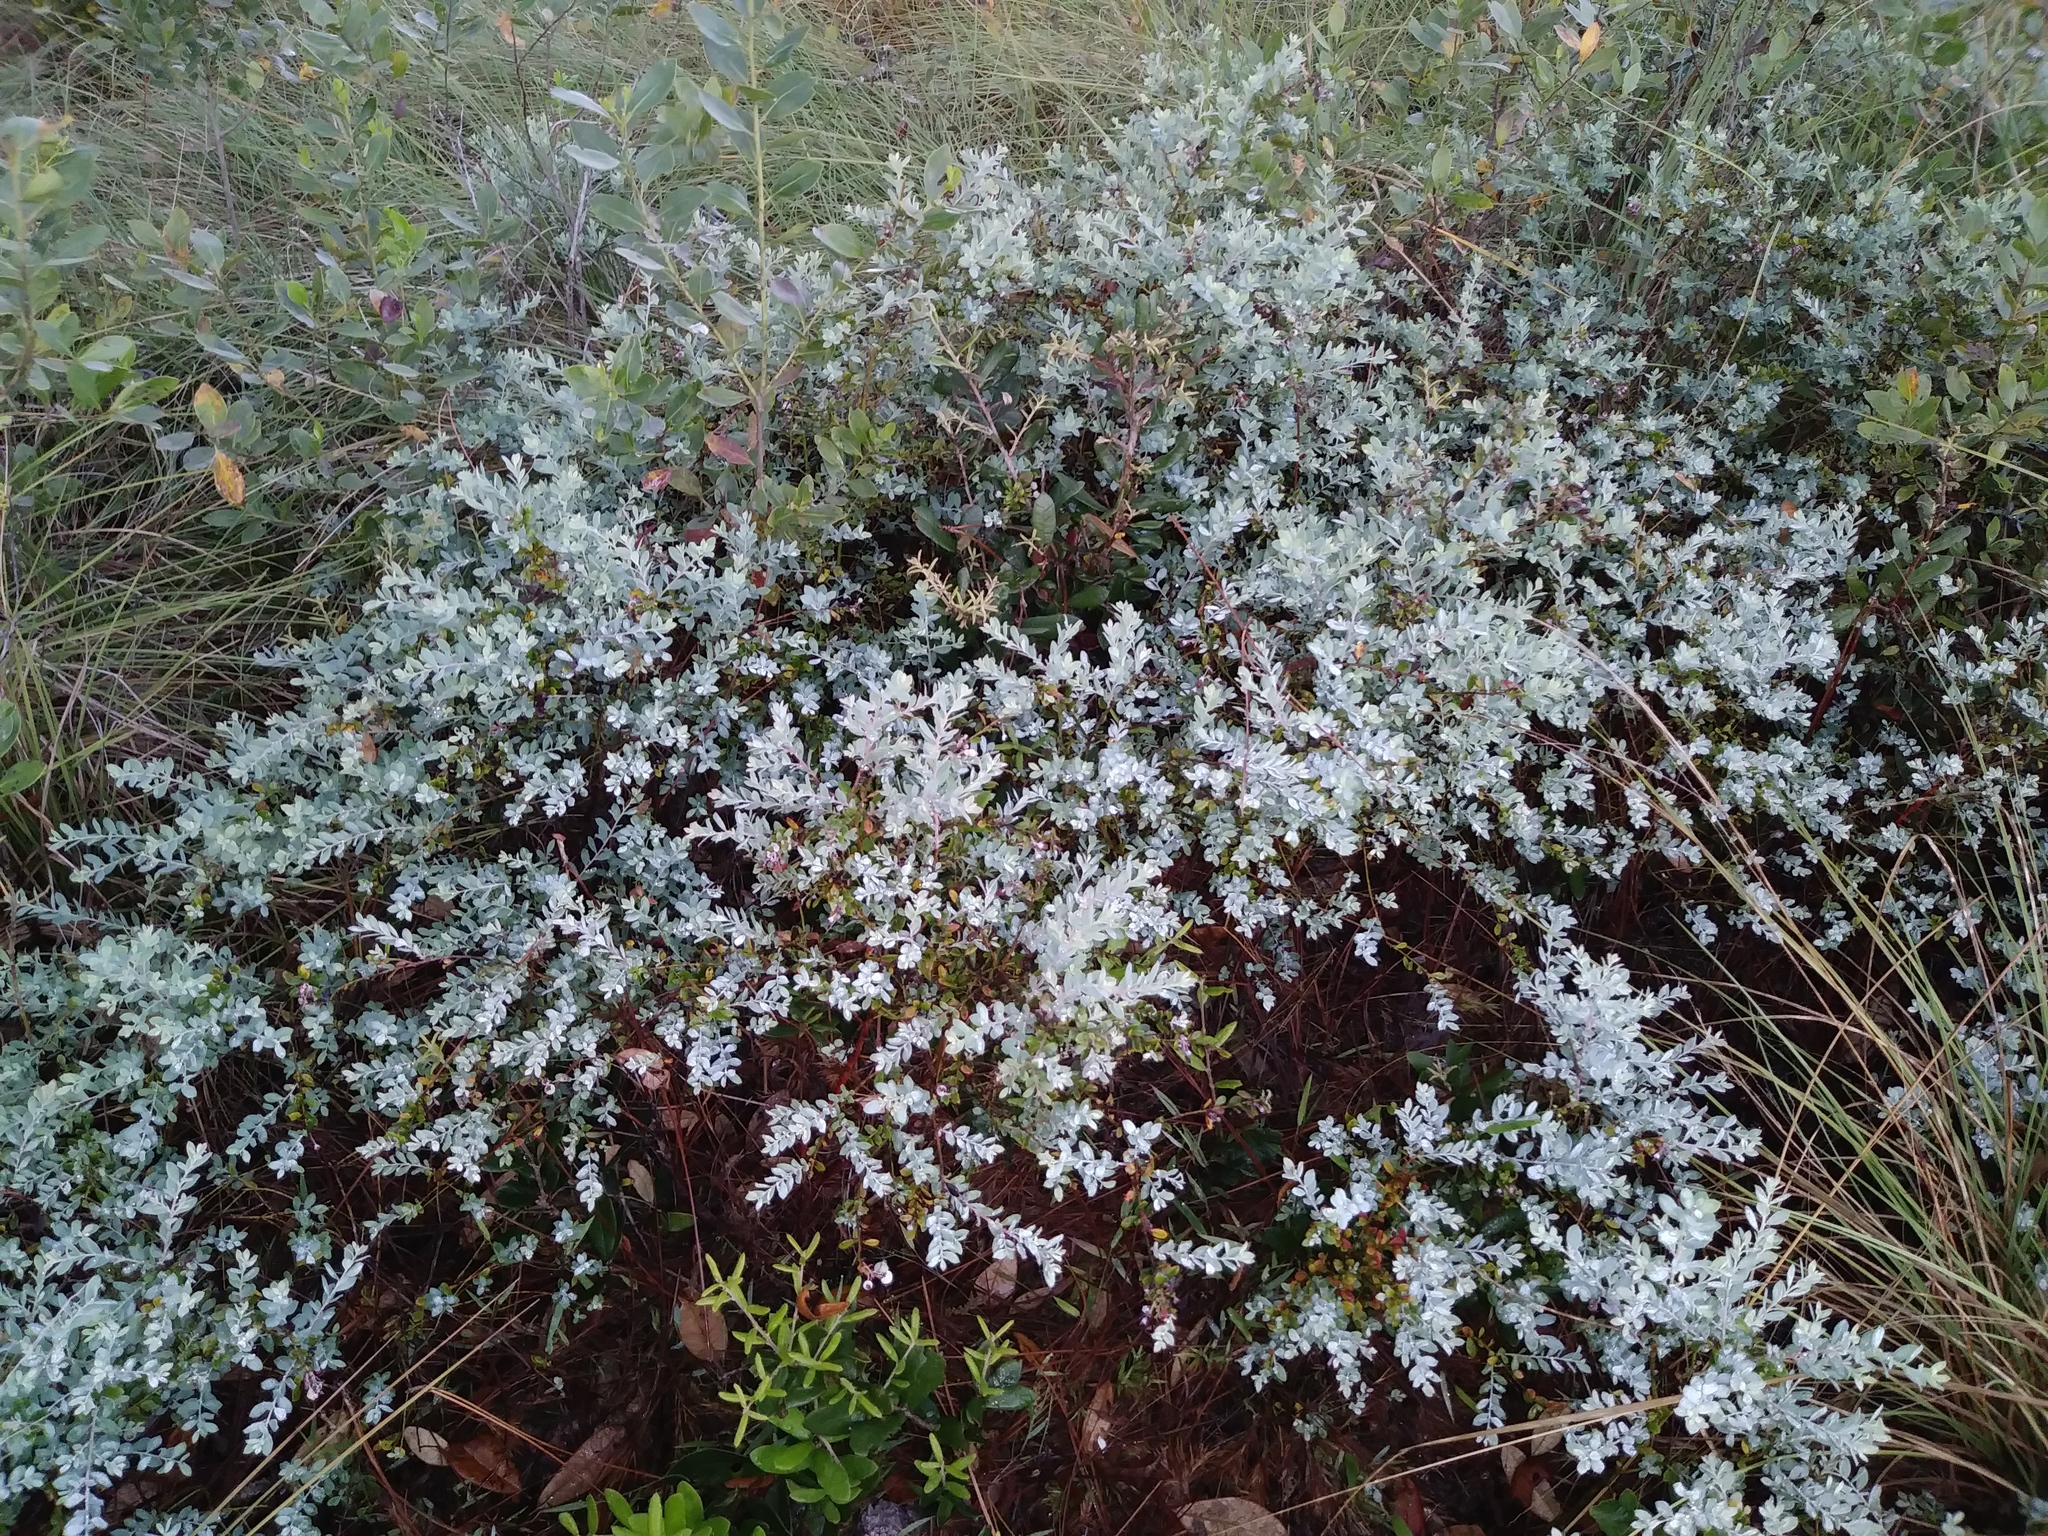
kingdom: Plantae
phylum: Tracheophyta
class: Magnoliopsida
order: Ericales
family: Ericaceae
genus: Vaccinium
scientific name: Vaccinium darrowii
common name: Darrow's blueberry
